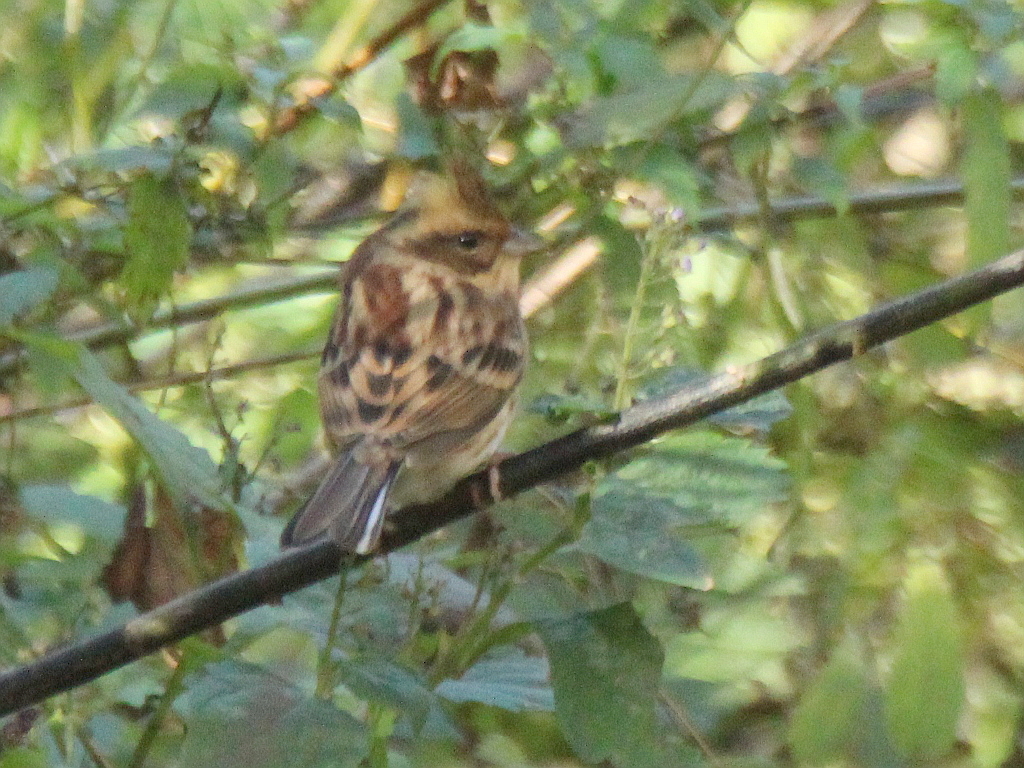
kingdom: Animalia
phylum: Chordata
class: Aves
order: Passeriformes
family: Emberizidae
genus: Emberiza
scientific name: Emberiza elegans
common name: Yellow-throated bunting
